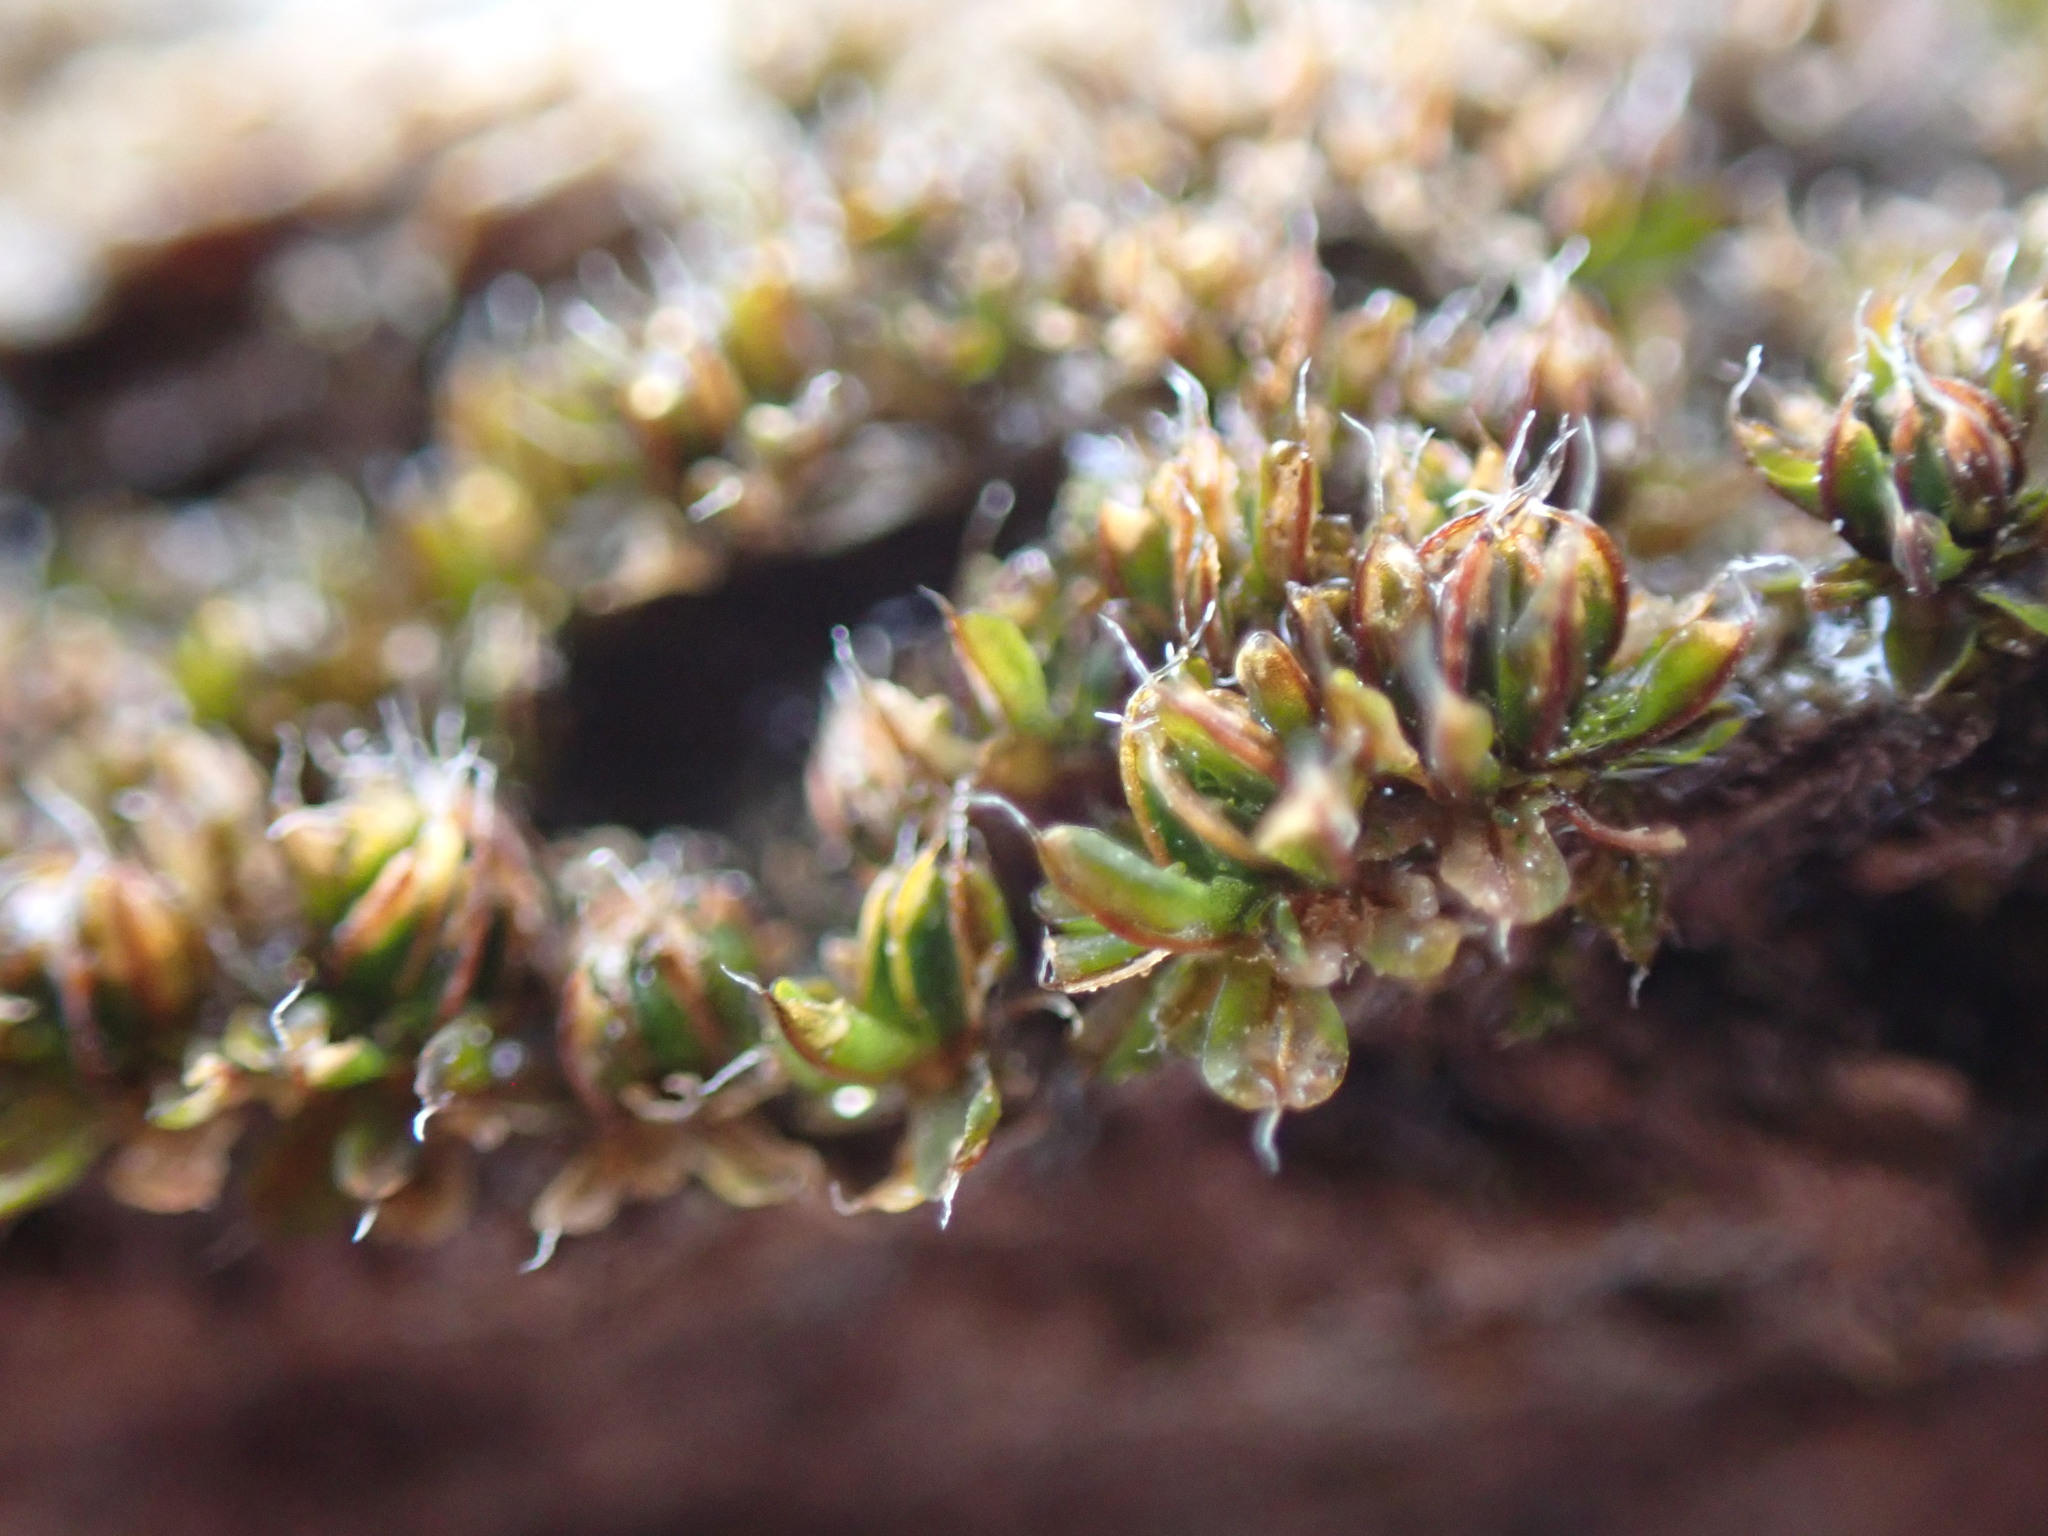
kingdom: Plantae
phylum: Bryophyta
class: Bryopsida
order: Pottiales
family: Pottiaceae
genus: Syntrichia
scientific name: Syntrichia pagorum
